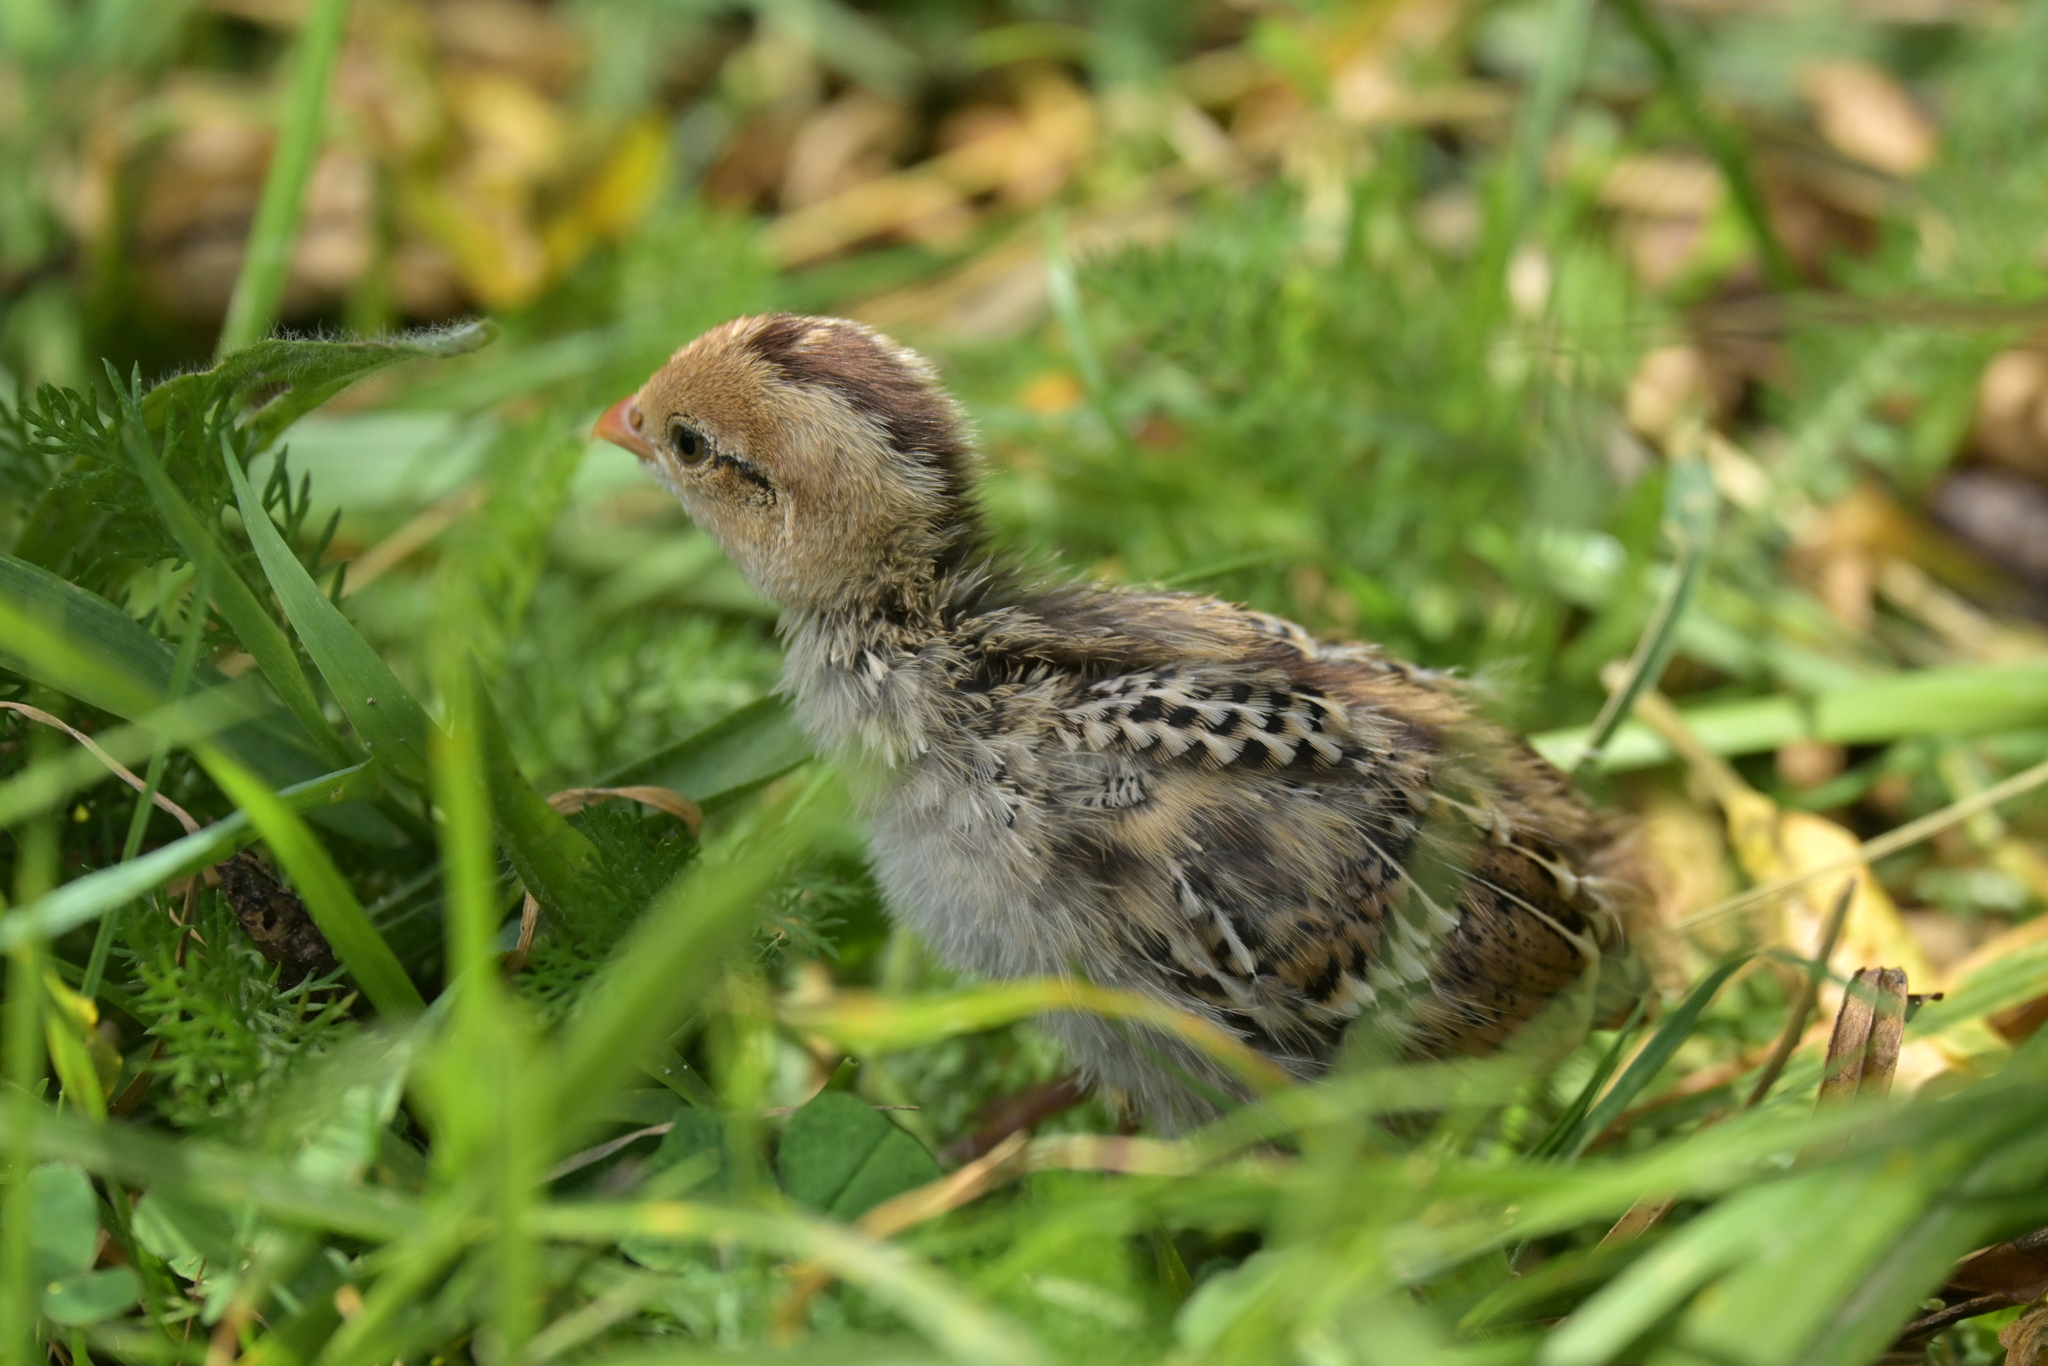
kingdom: Animalia
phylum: Chordata
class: Aves
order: Galliformes
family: Odontophoridae
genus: Callipepla
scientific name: Callipepla californica
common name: California quail
